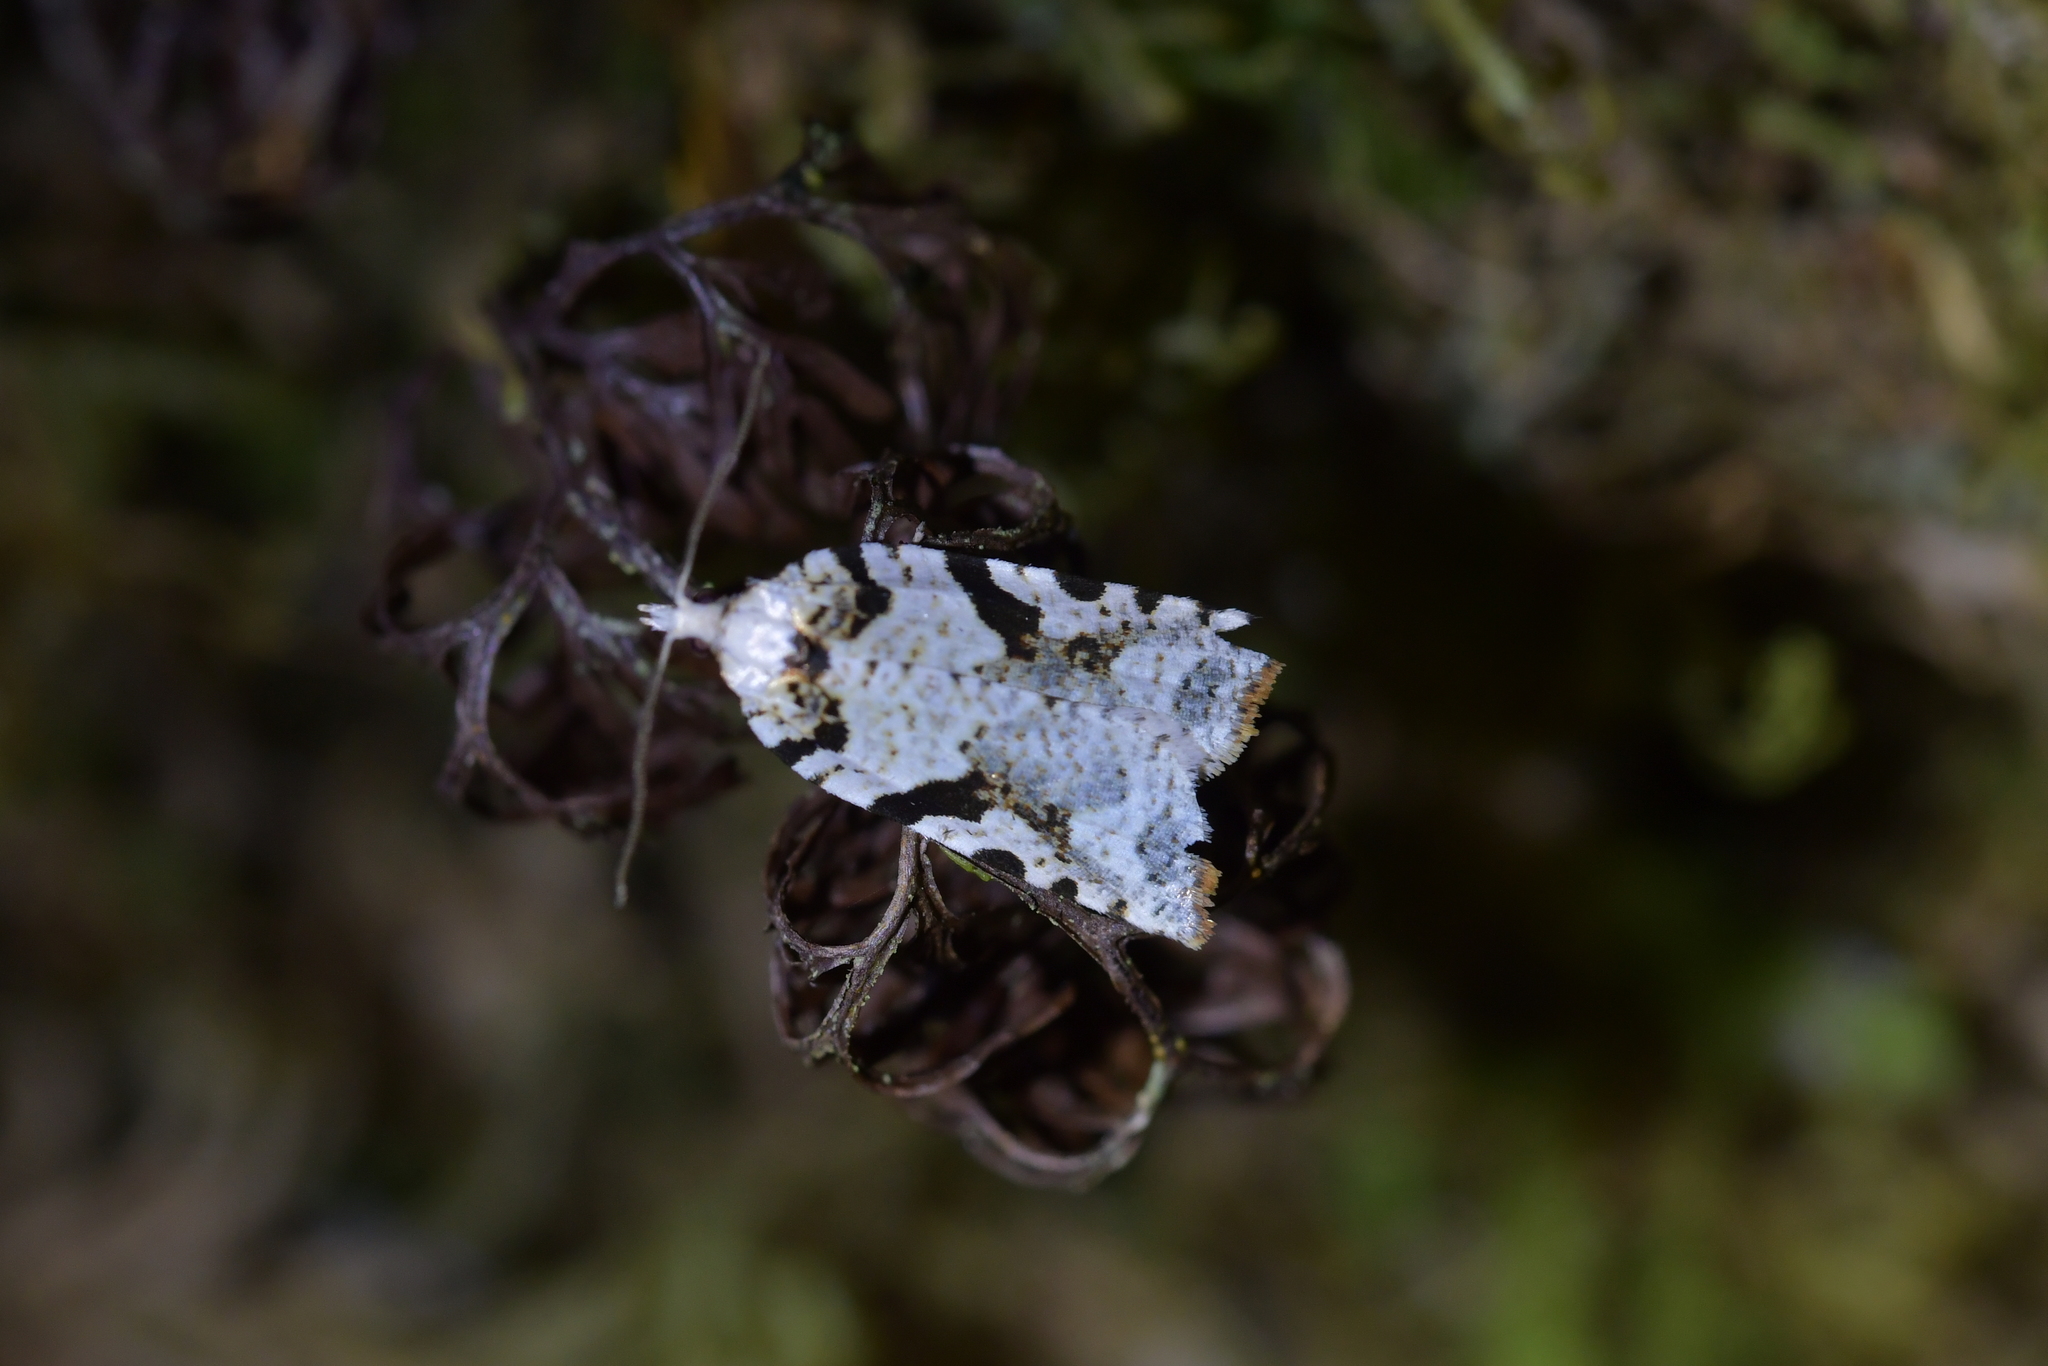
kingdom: Animalia
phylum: Arthropoda
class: Insecta
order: Lepidoptera
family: Tortricidae
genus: Leucotenes
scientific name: Leucotenes coprosmae
